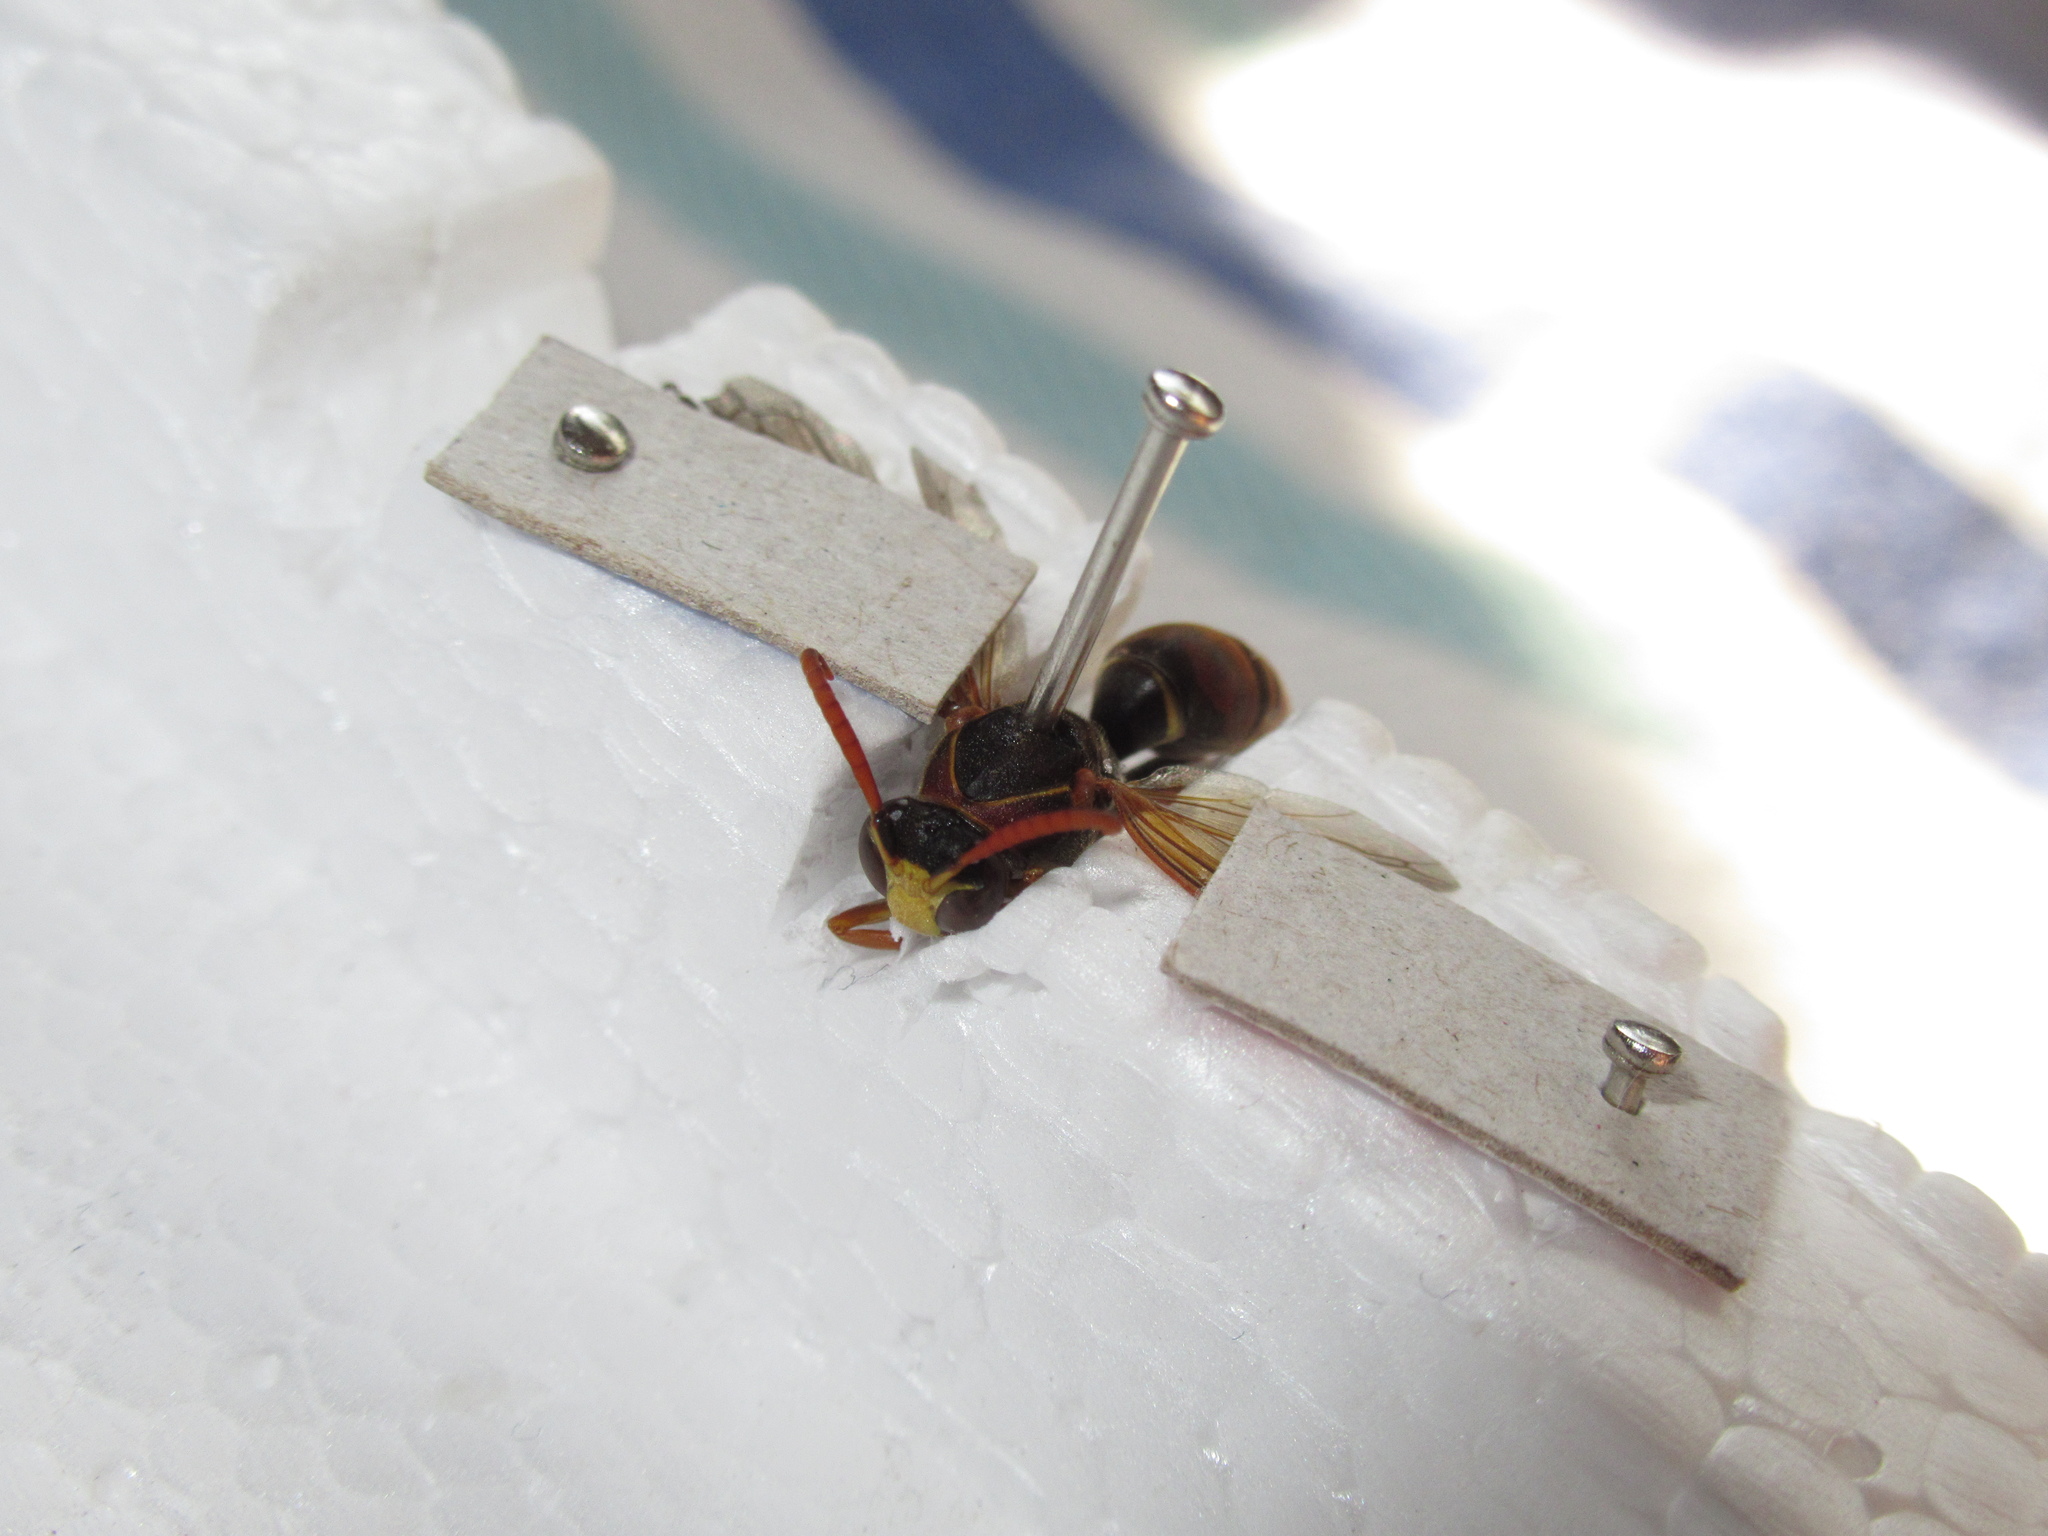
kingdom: Animalia
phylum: Arthropoda
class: Insecta
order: Hymenoptera
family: Eumenidae
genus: Polistes
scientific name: Polistes humilis
